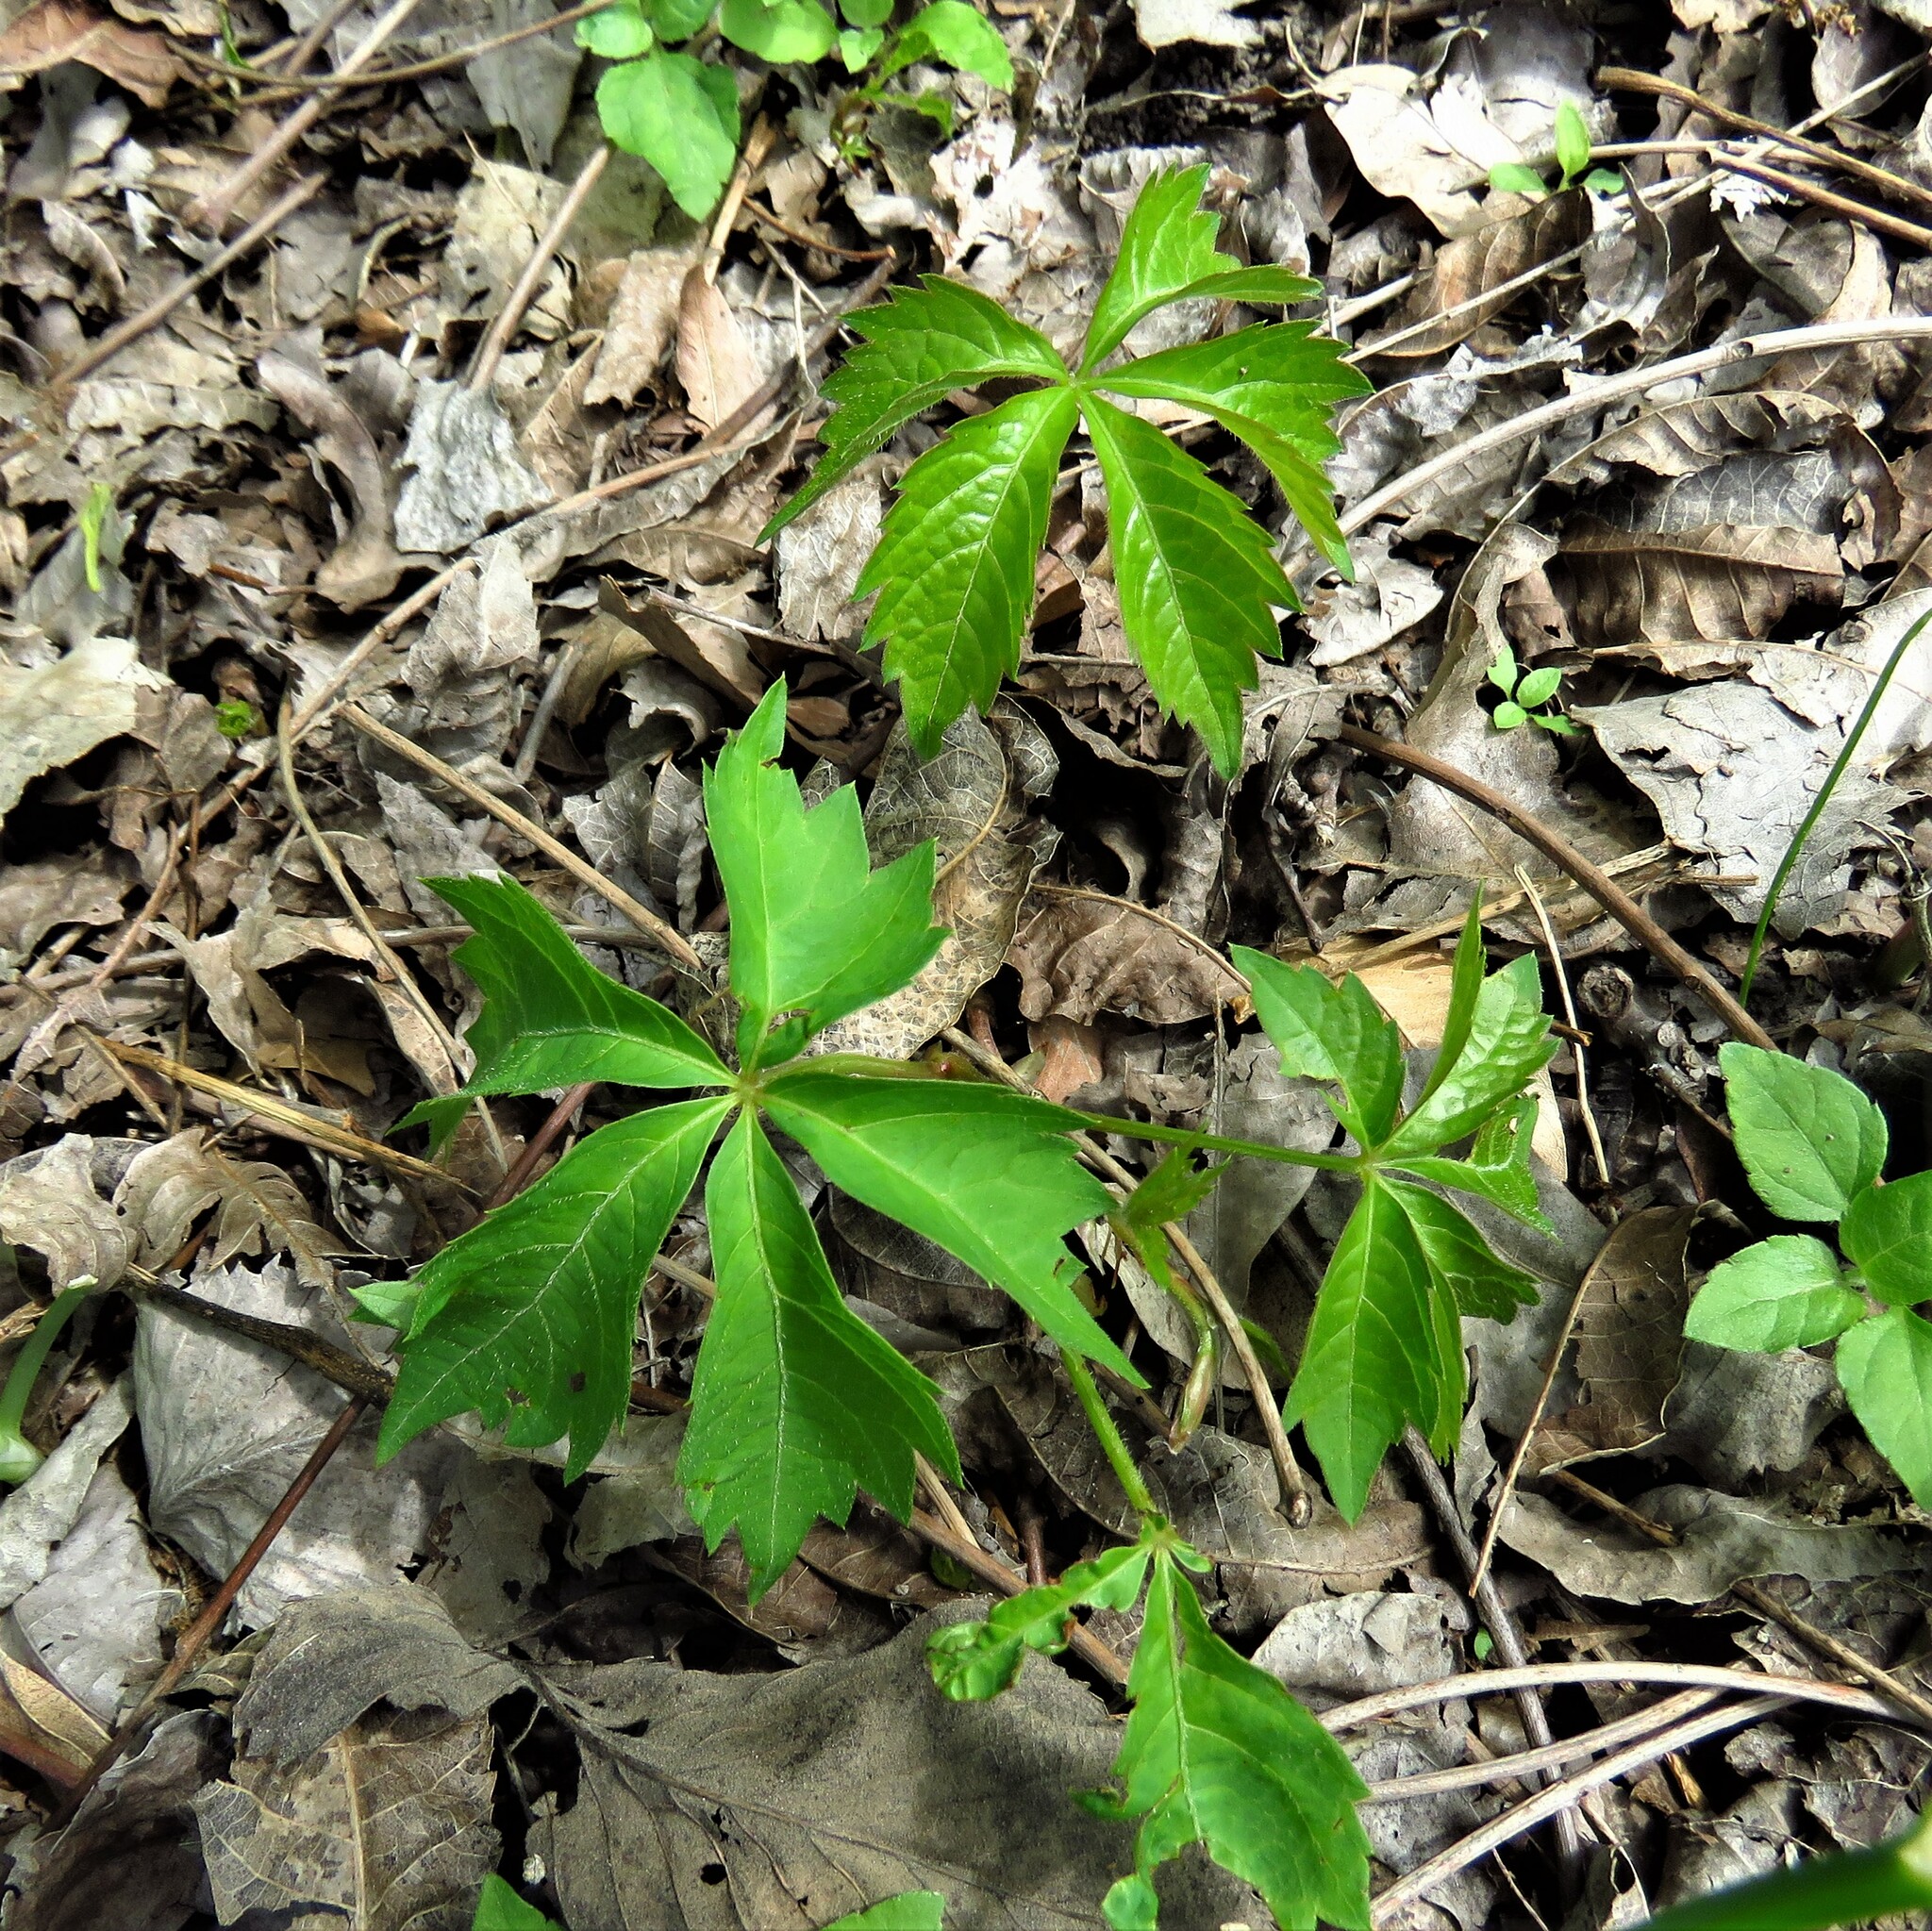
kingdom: Plantae
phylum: Tracheophyta
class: Magnoliopsida
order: Vitales
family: Vitaceae
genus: Parthenocissus
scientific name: Parthenocissus quinquefolia
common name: Virginia-creeper
